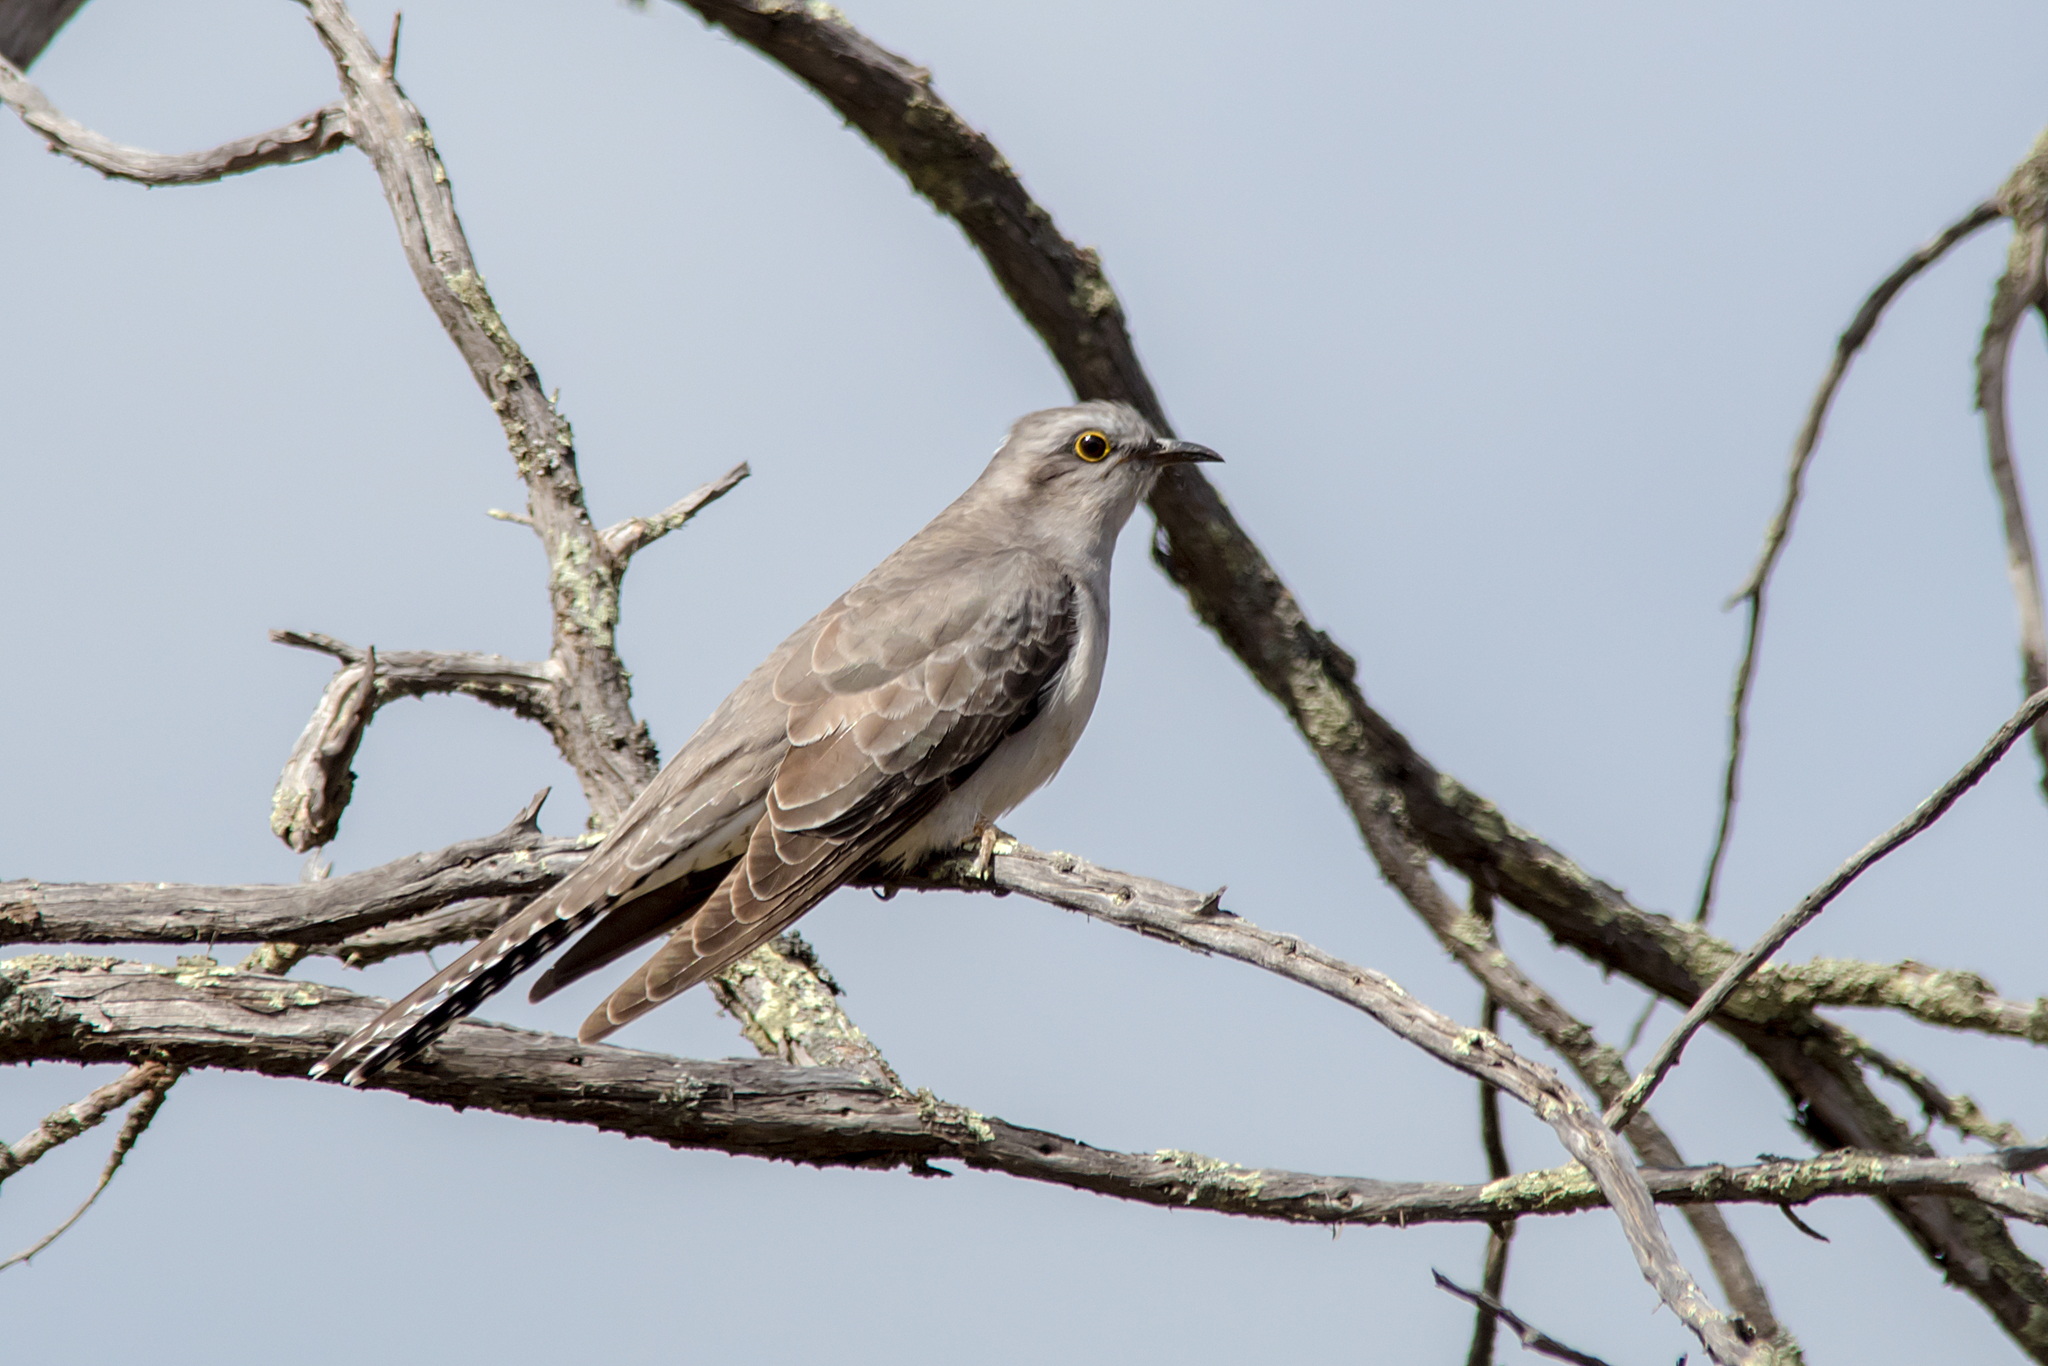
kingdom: Animalia
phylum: Chordata
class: Aves
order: Cuculiformes
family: Cuculidae
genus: Cuculus
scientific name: Cuculus pallidus
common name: Pallid cuckoo
